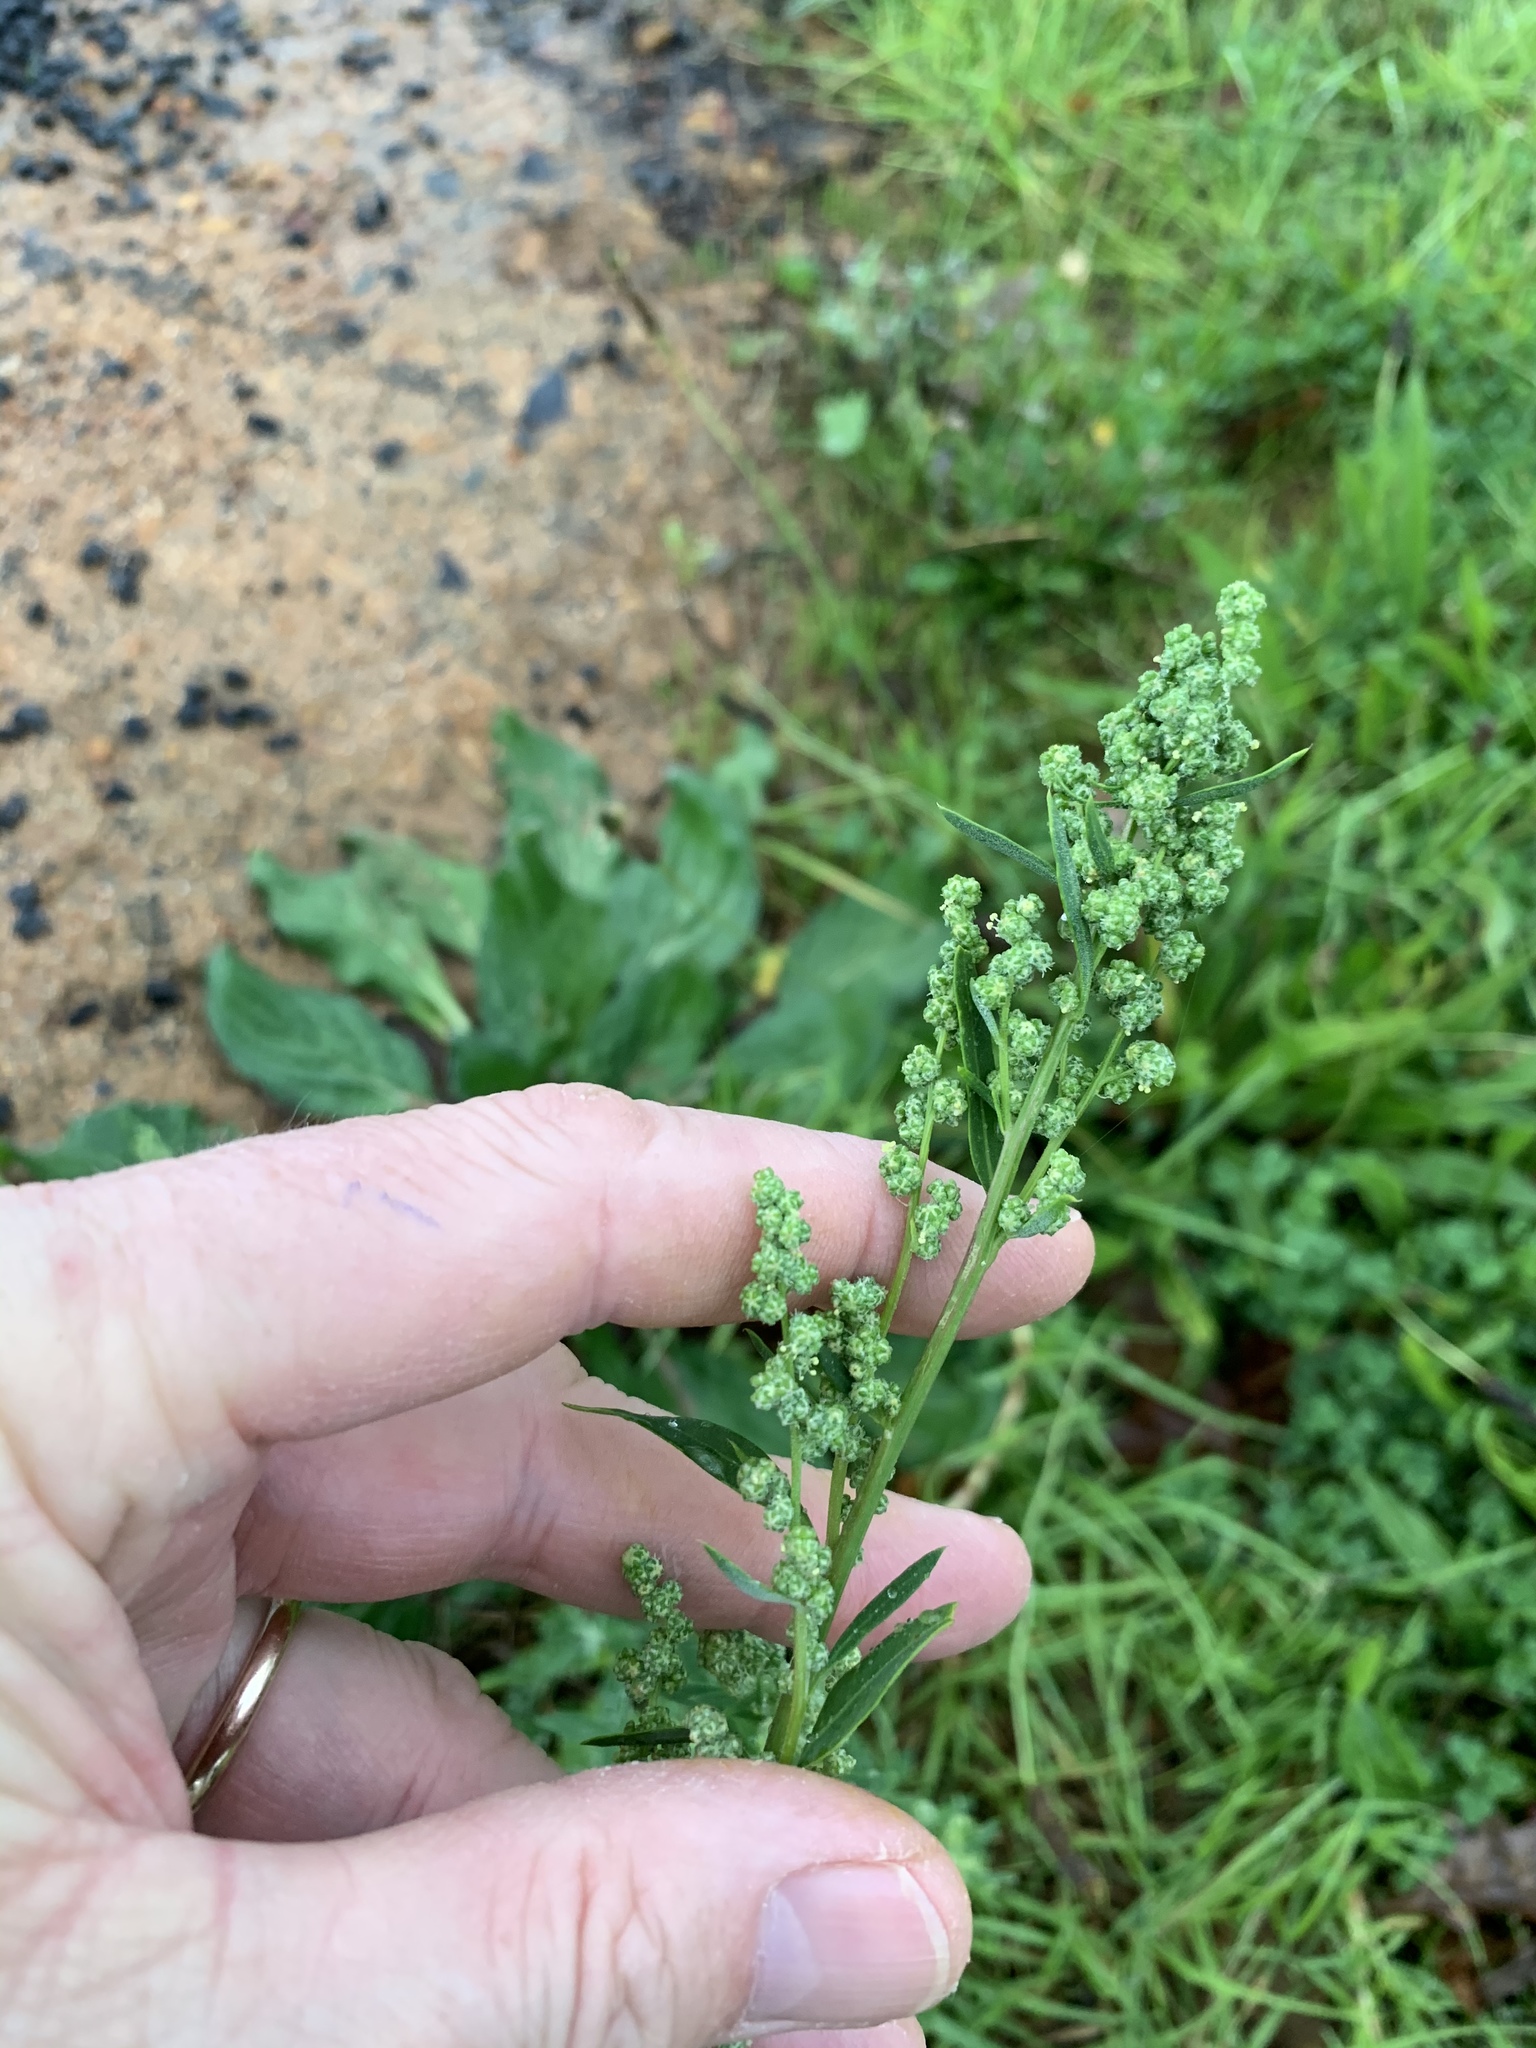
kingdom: Plantae
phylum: Tracheophyta
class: Magnoliopsida
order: Caryophyllales
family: Amaranthaceae
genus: Chenopodium
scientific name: Chenopodium album
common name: Fat-hen
